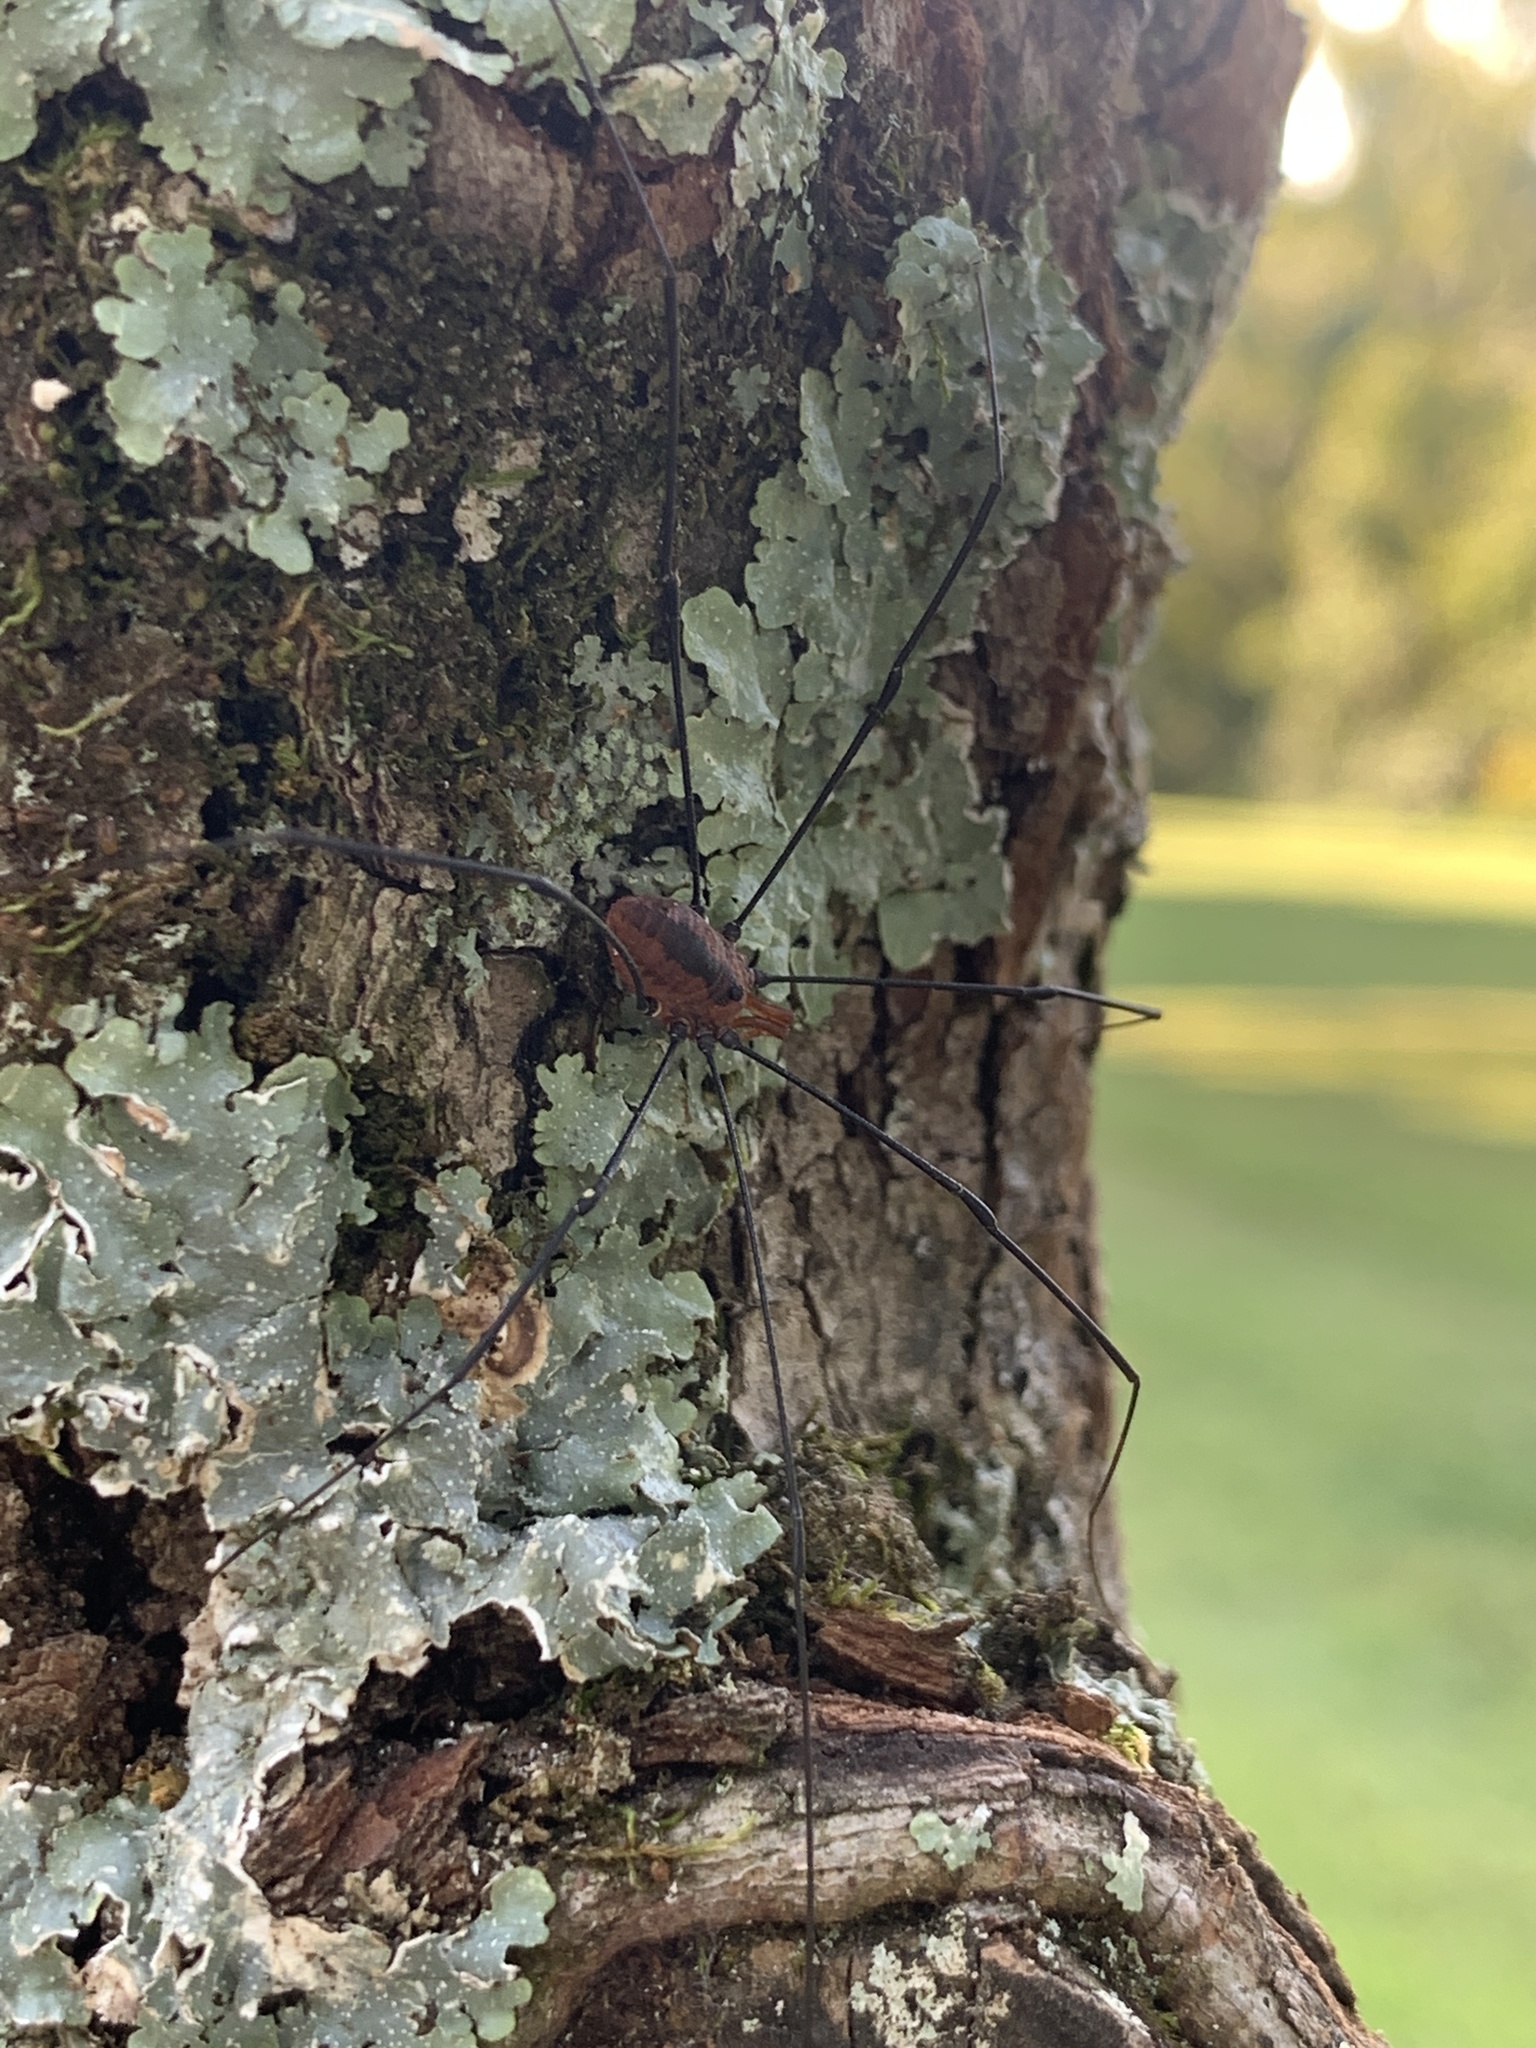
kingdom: Animalia
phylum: Arthropoda
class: Arachnida
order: Opiliones
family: Sclerosomatidae
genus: Leiobunum
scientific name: Leiobunum vittatum
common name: Eastern harvestman
